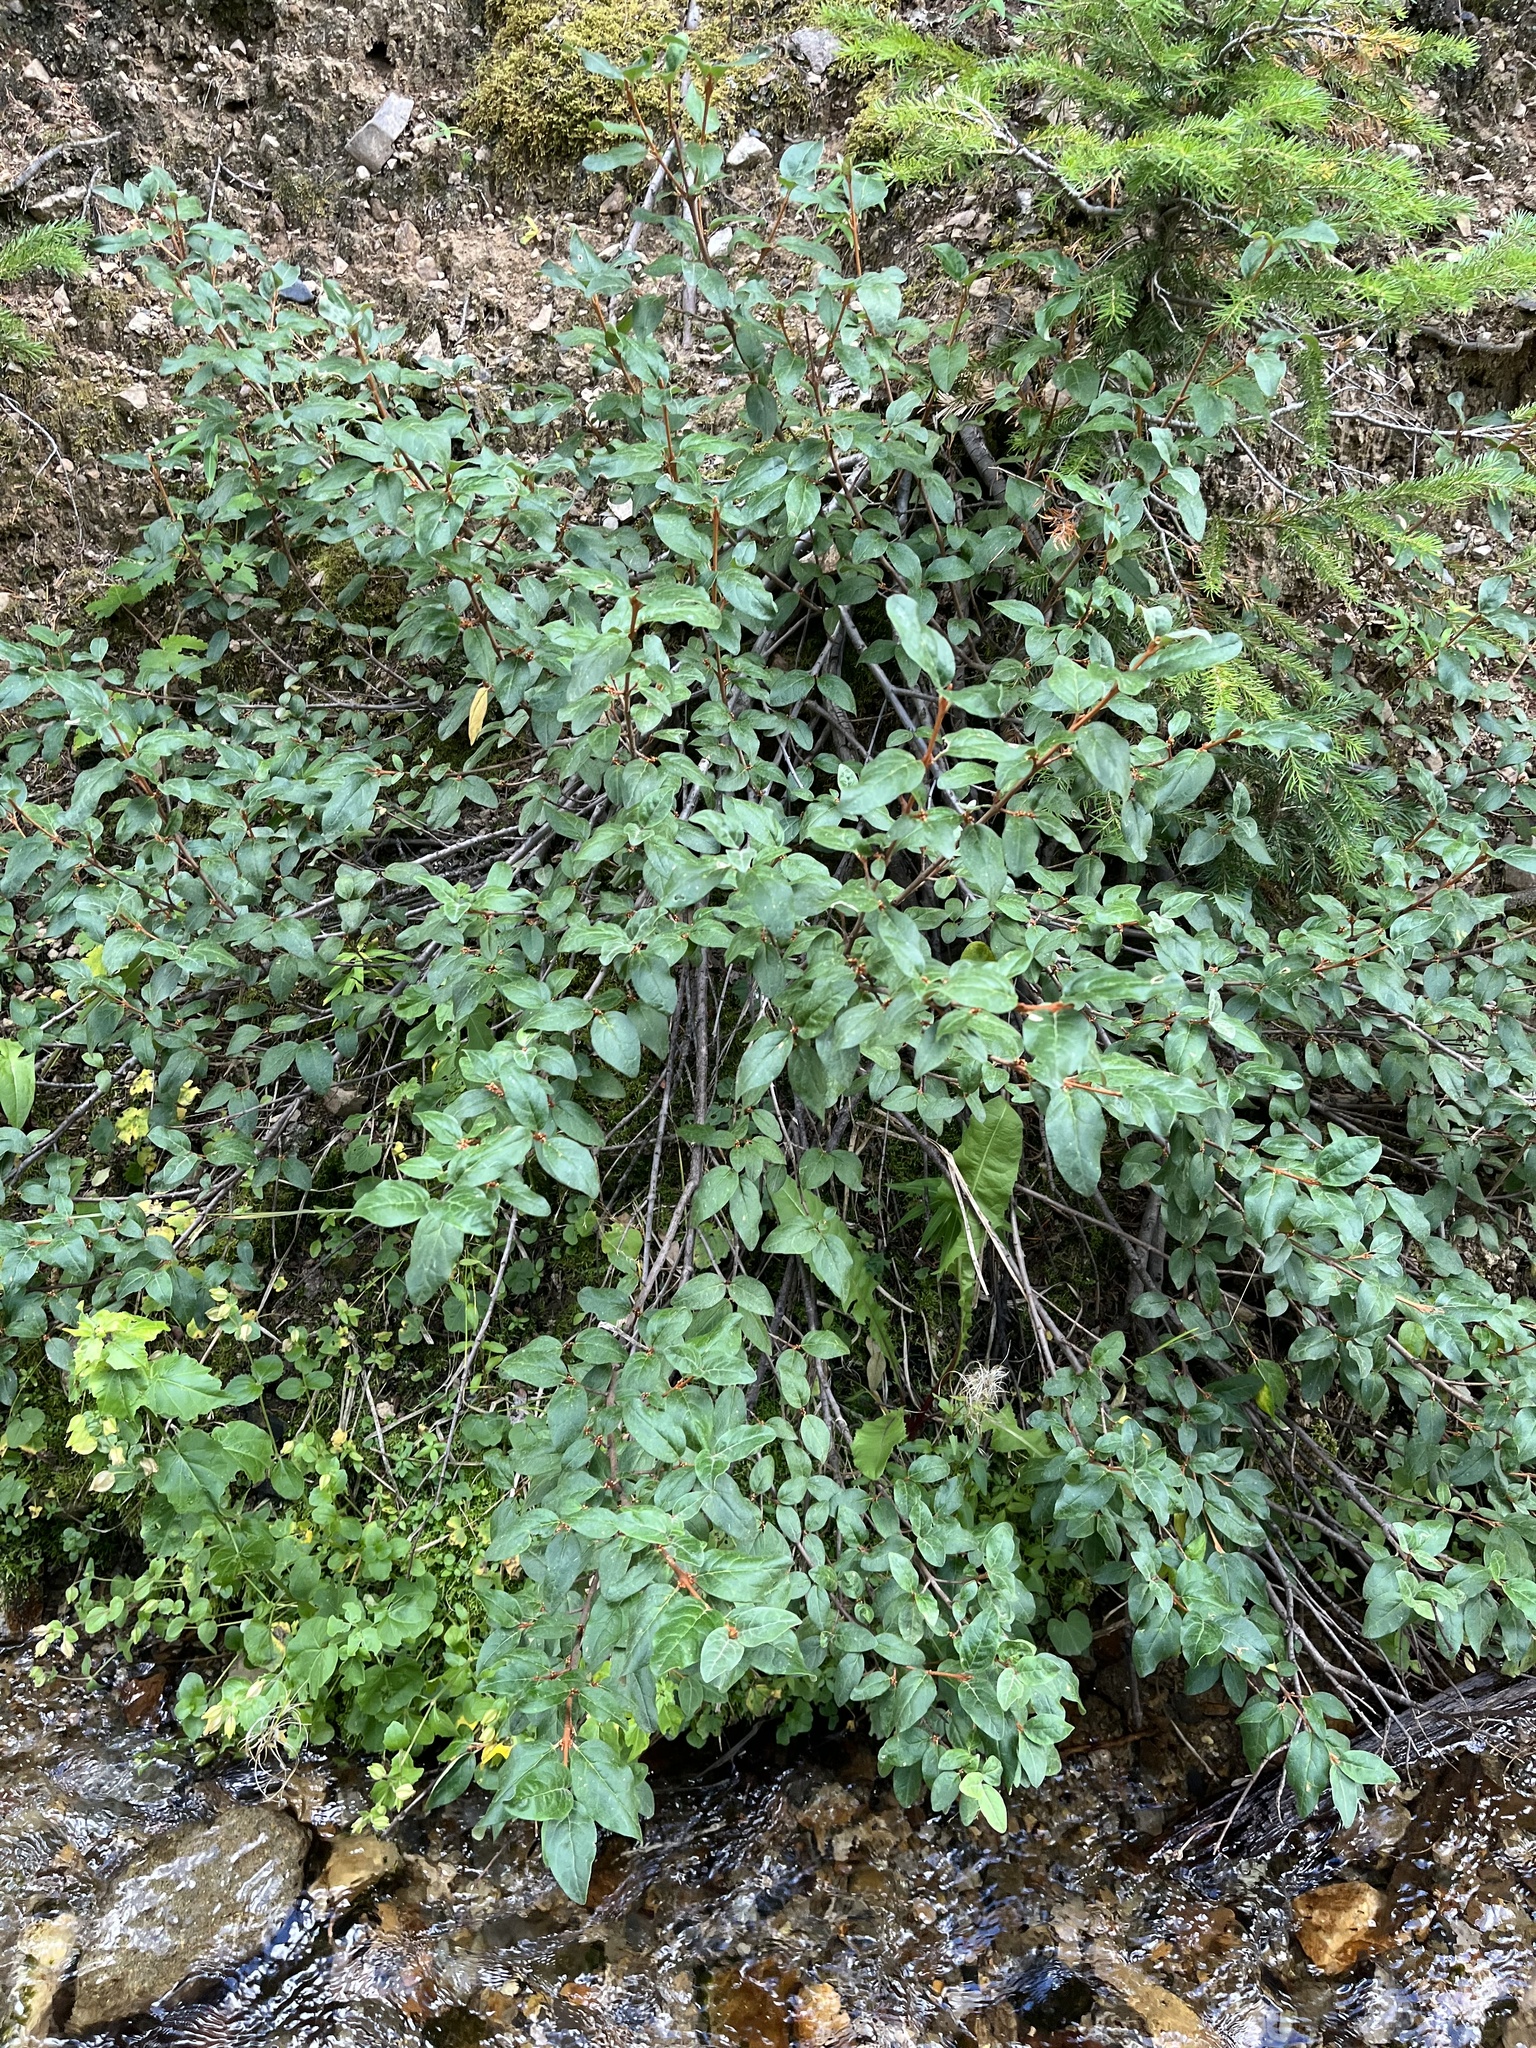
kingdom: Plantae
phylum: Tracheophyta
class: Magnoliopsida
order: Rosales
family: Elaeagnaceae
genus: Shepherdia
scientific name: Shepherdia canadensis
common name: Soapberry
